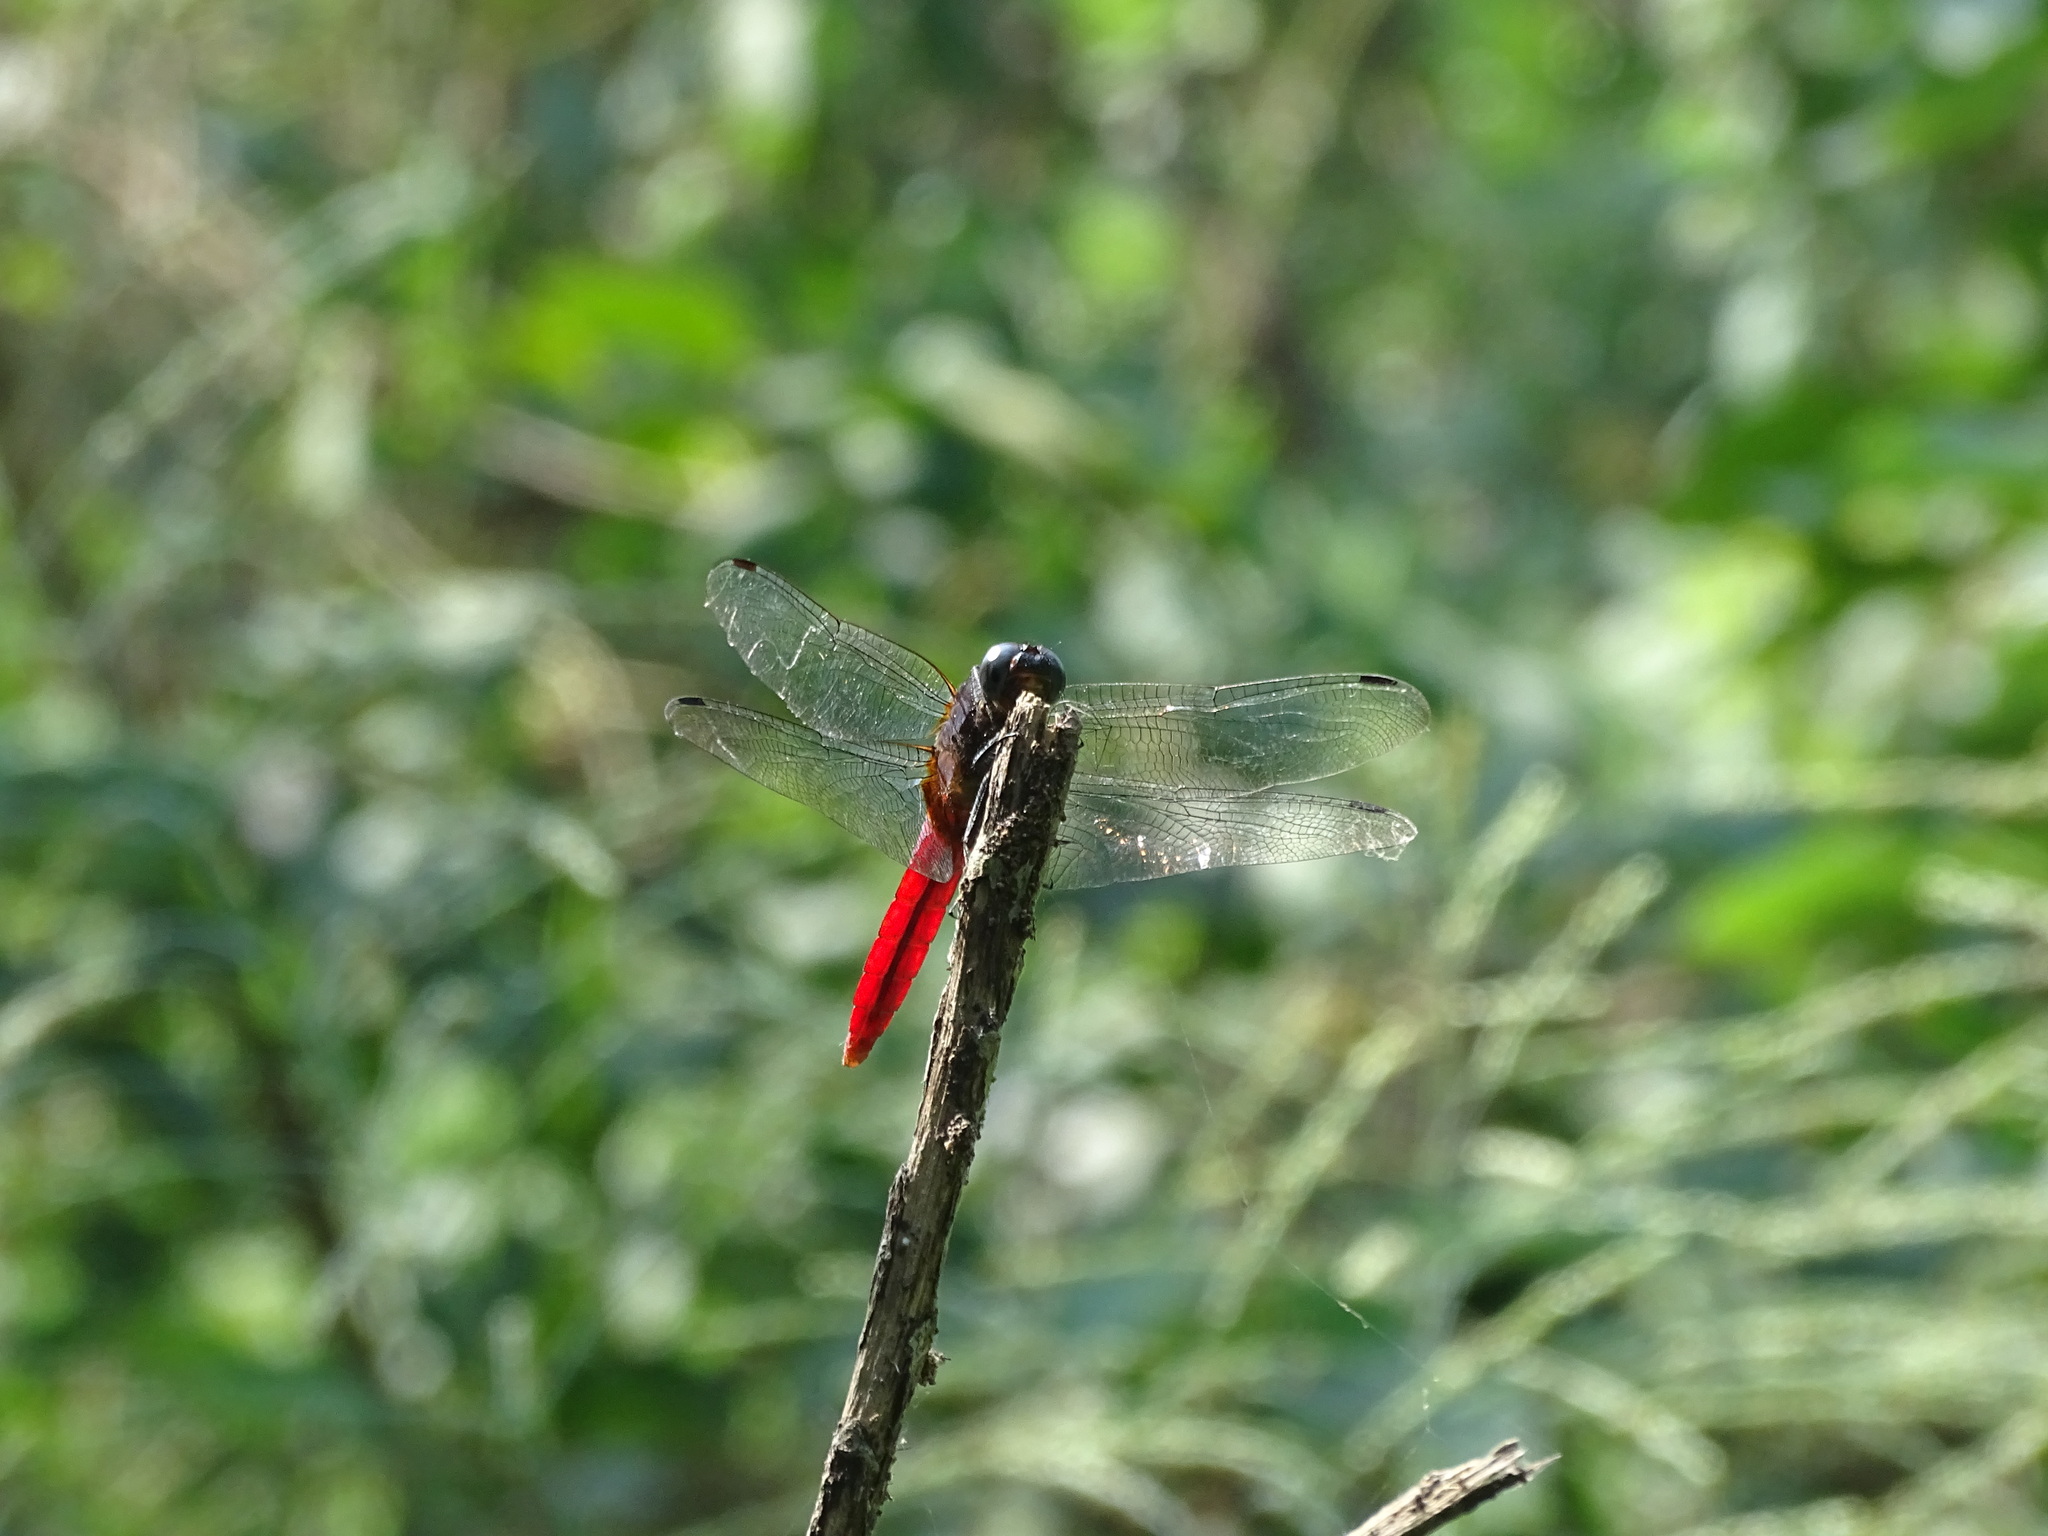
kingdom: Animalia
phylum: Arthropoda
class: Insecta
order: Odonata
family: Libellulidae
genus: Orthetrum
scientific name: Orthetrum pruinosum
